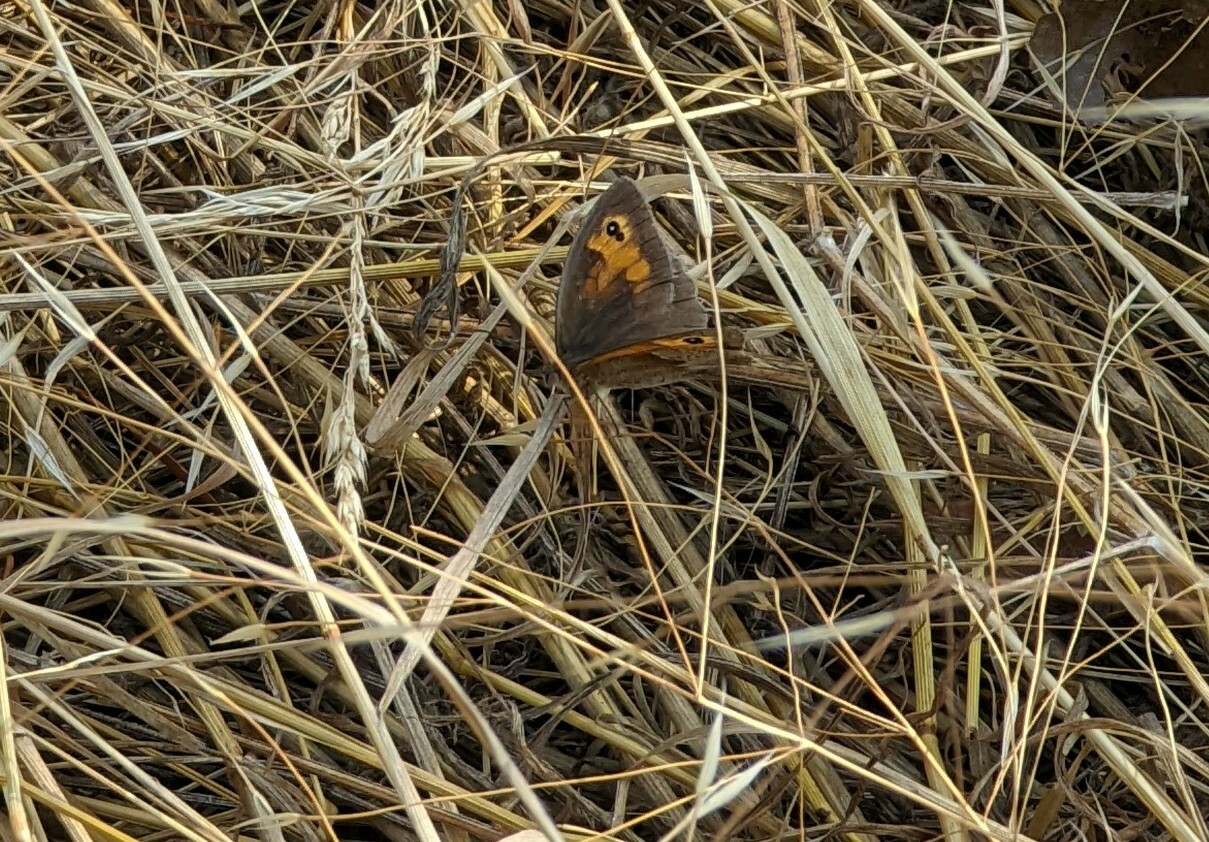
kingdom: Animalia
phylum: Arthropoda
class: Insecta
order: Lepidoptera
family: Nymphalidae
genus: Maniola
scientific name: Maniola jurtina
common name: Meadow brown
